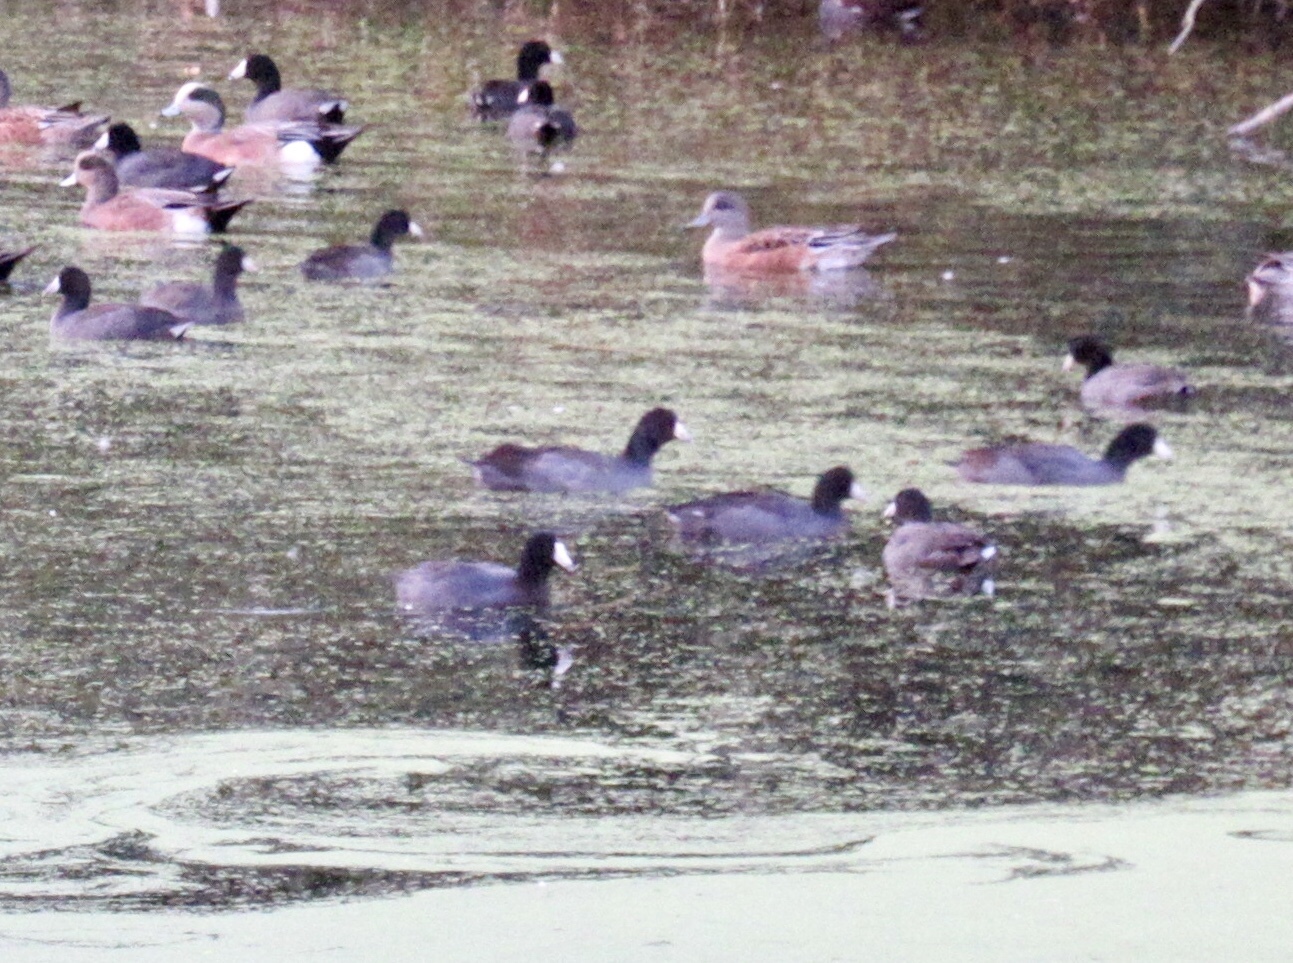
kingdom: Animalia
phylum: Chordata
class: Aves
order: Gruiformes
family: Rallidae
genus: Fulica
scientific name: Fulica americana
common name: American coot
